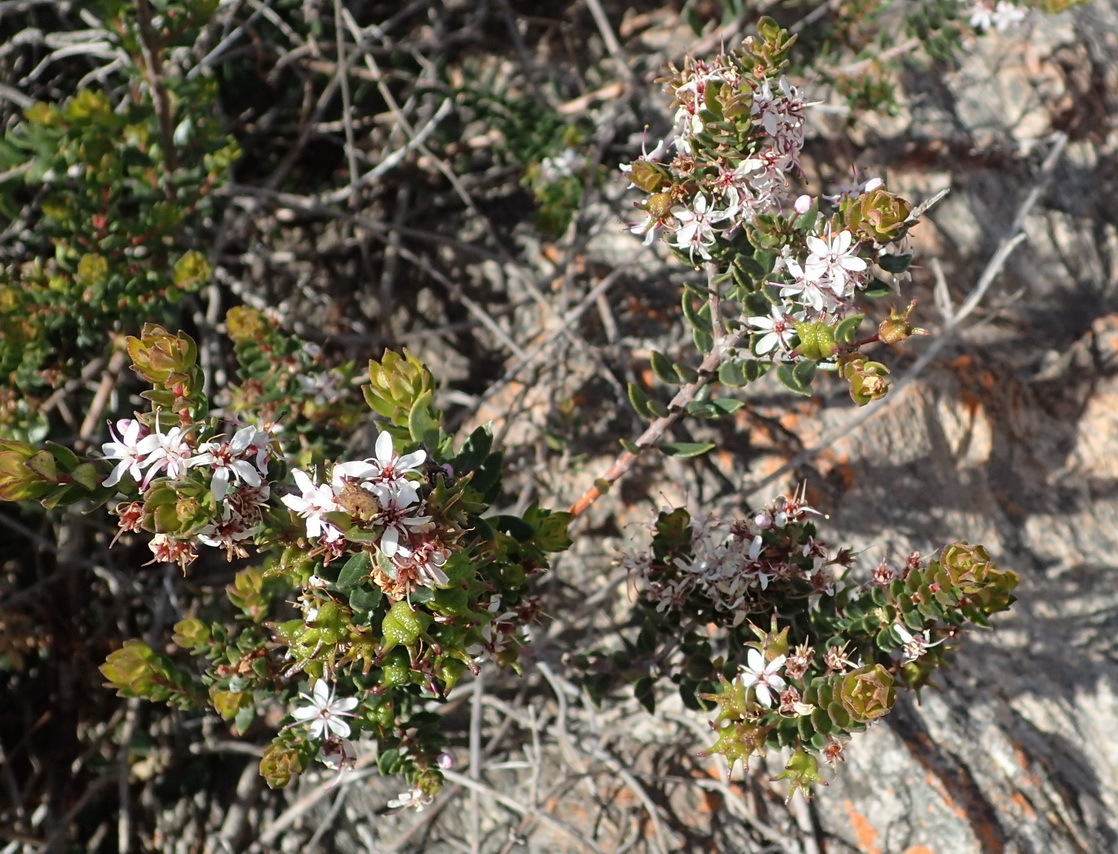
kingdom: Plantae
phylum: Tracheophyta
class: Magnoliopsida
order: Sapindales
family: Rutaceae
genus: Agathosma
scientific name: Agathosma ovata
